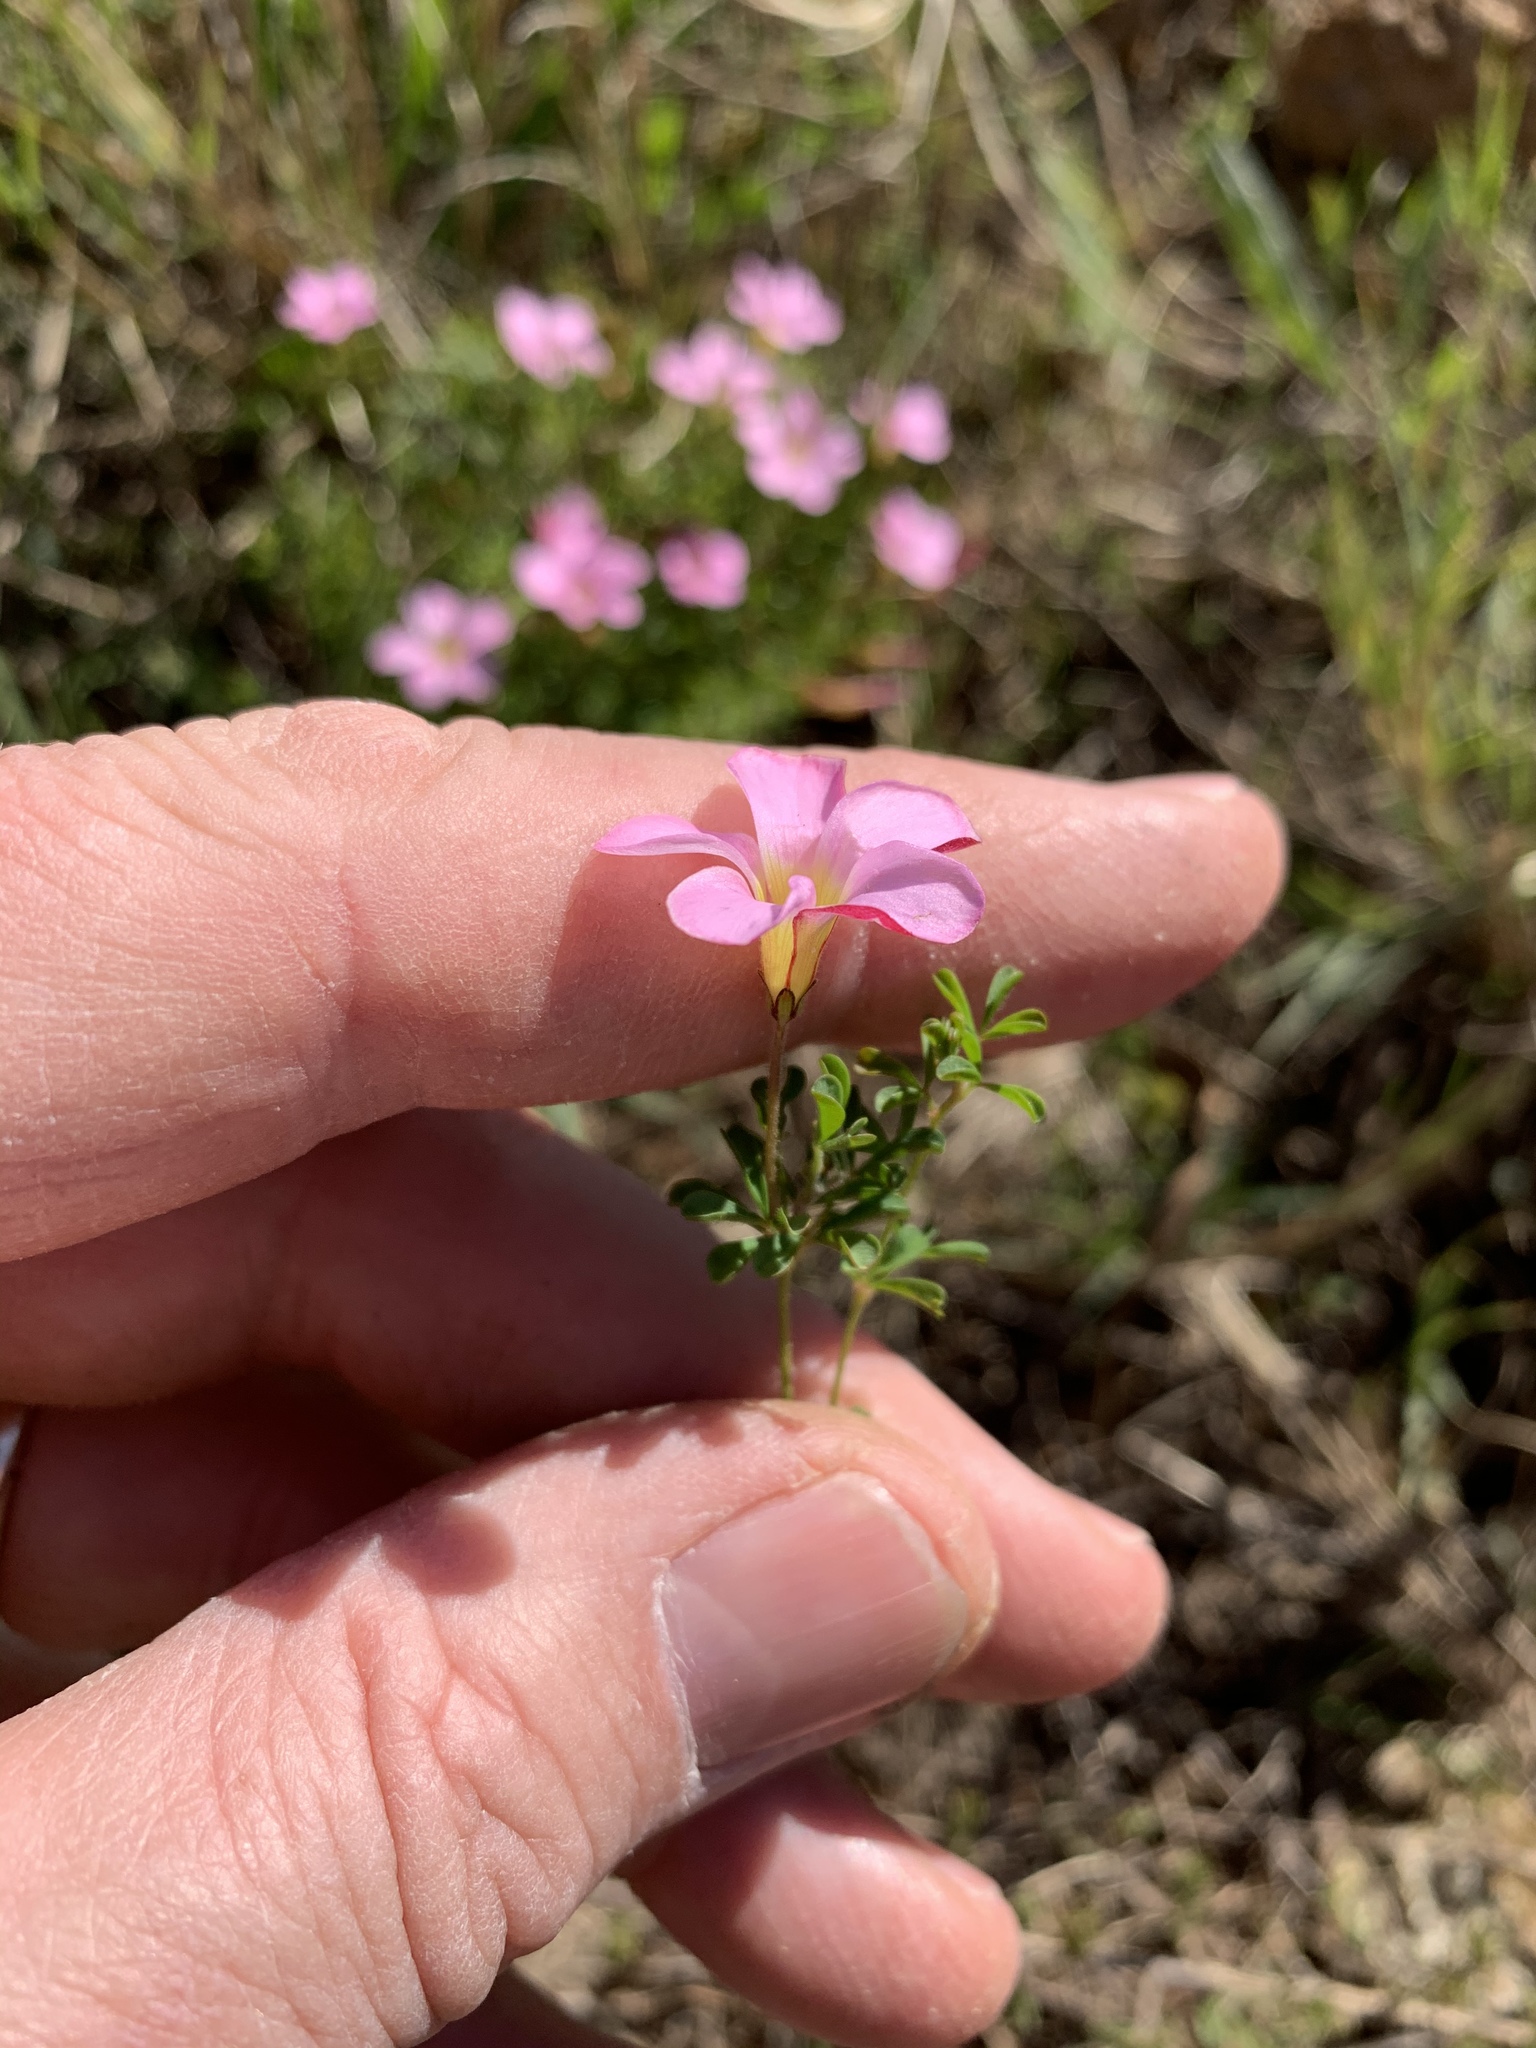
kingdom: Plantae
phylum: Tracheophyta
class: Magnoliopsida
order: Oxalidales
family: Oxalidaceae
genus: Oxalis
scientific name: Oxalis multicaulis
